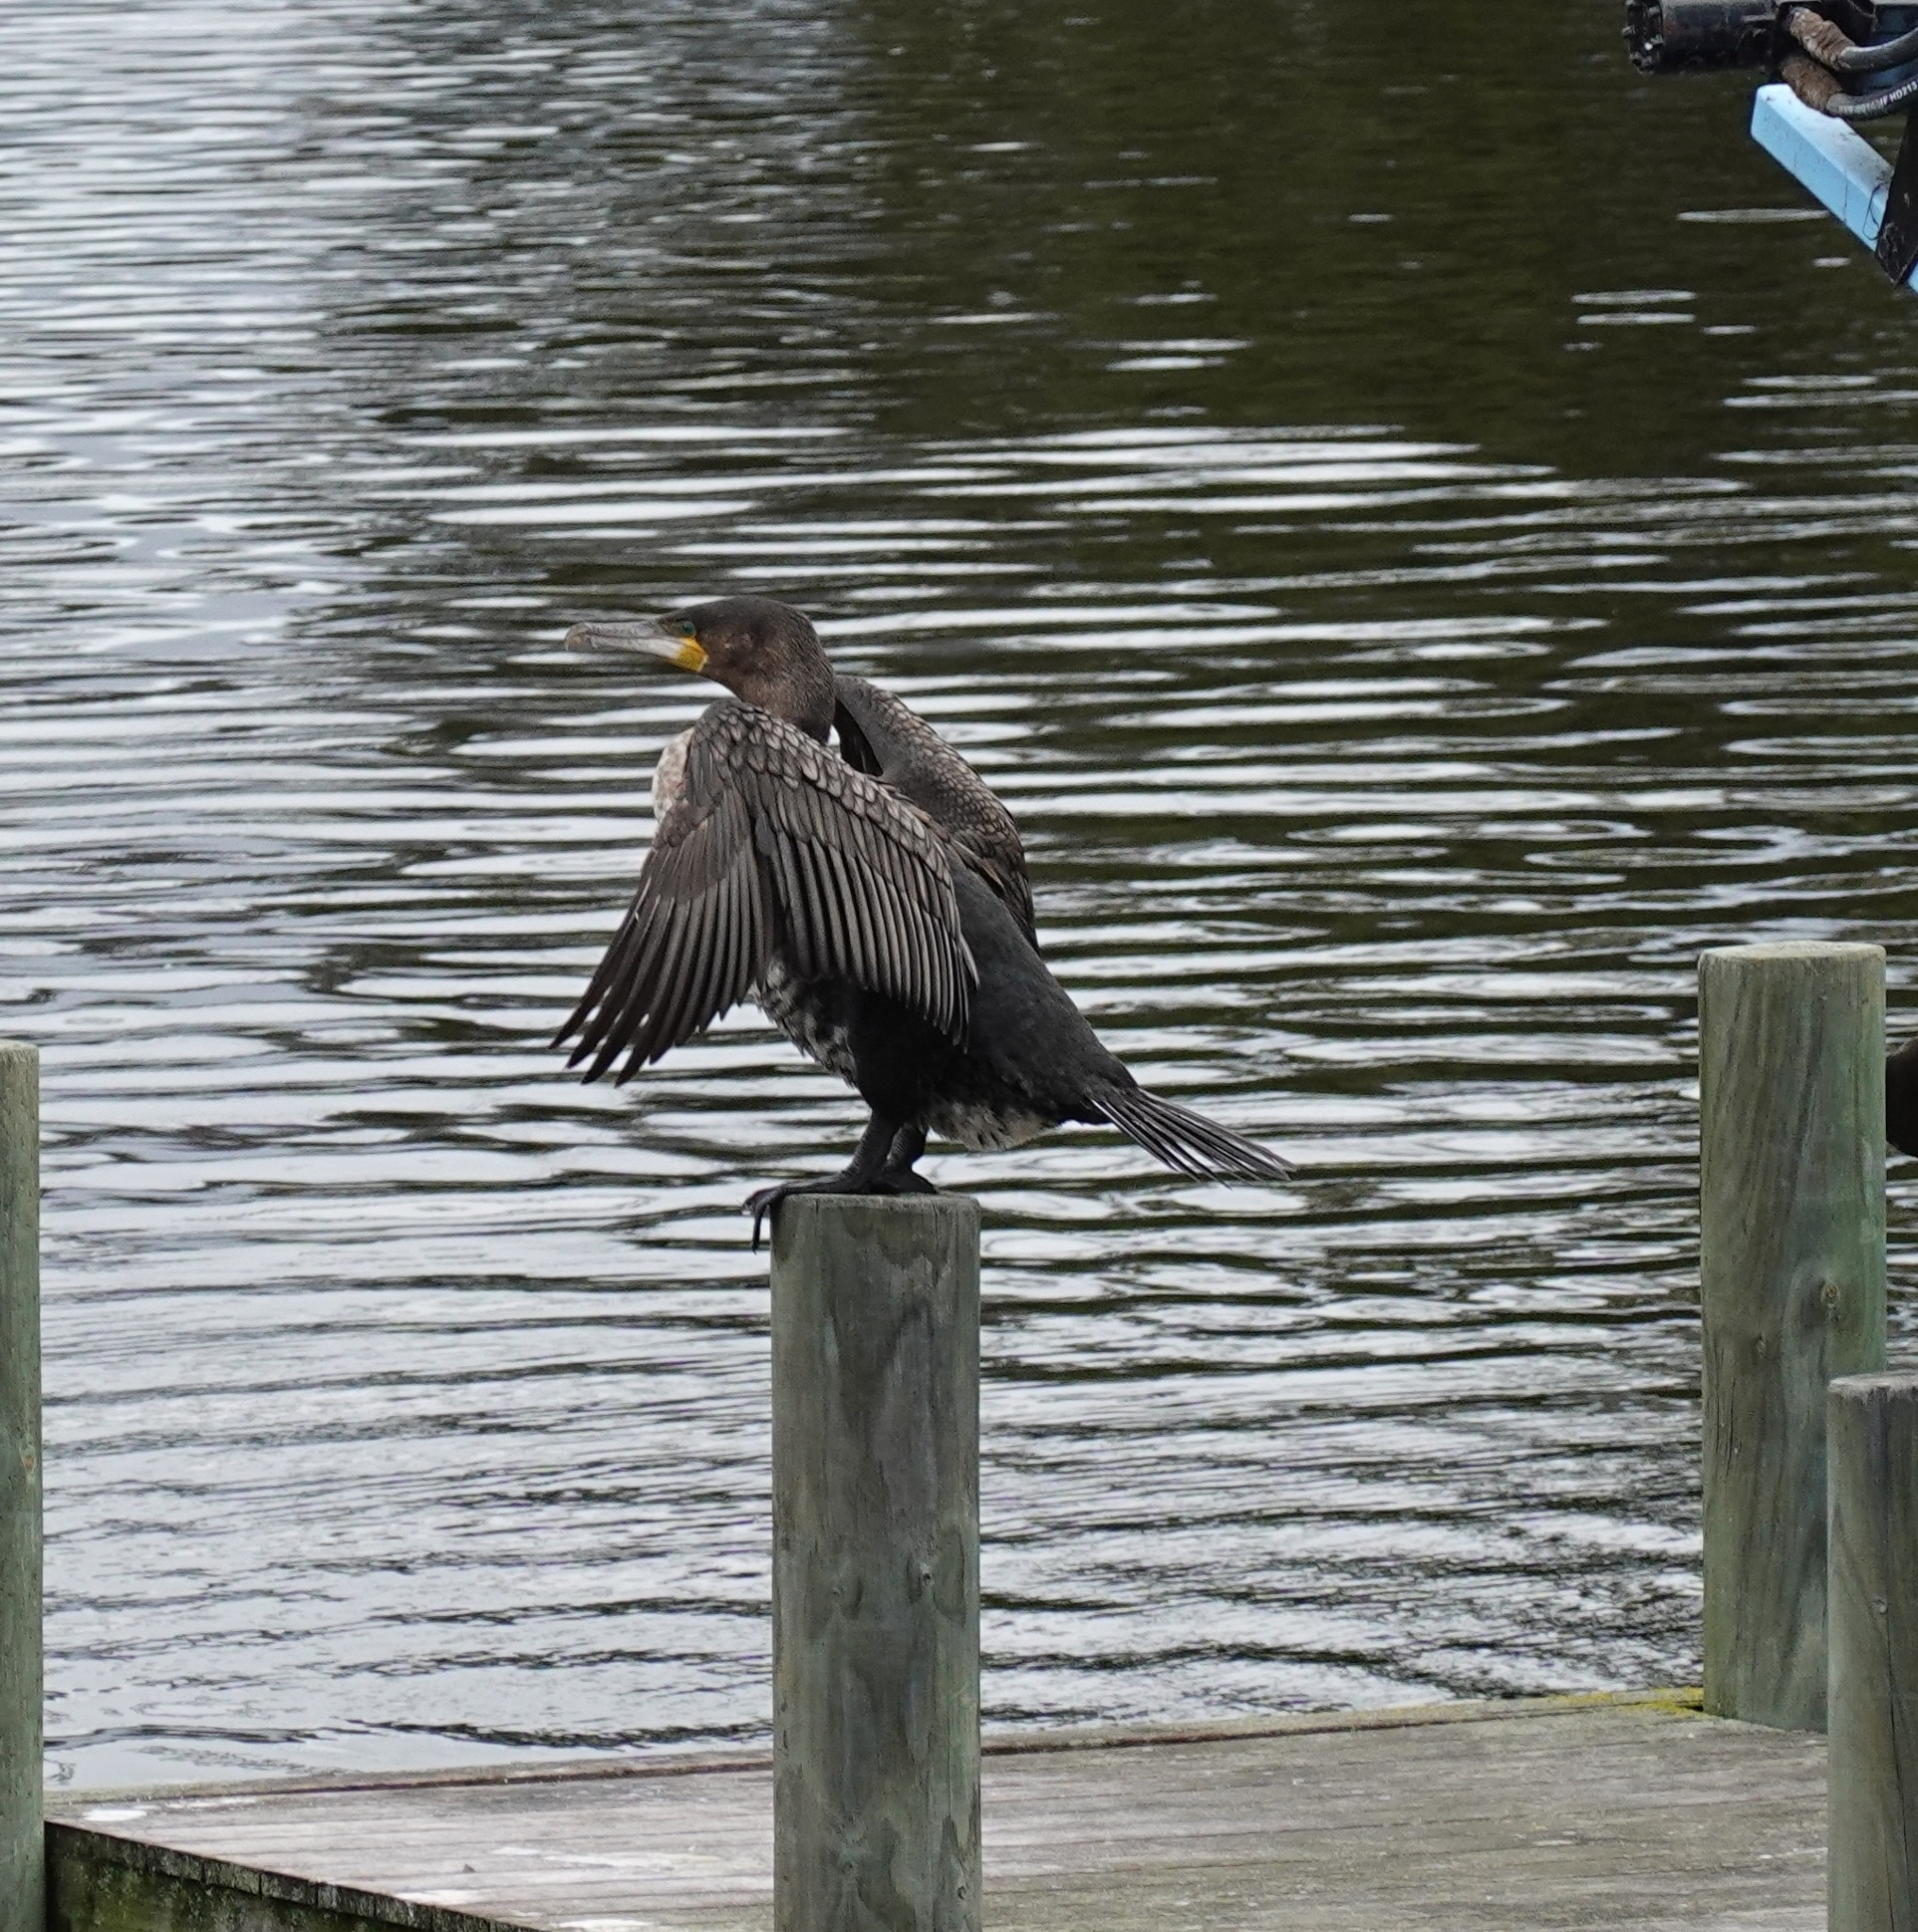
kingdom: Animalia
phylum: Chordata
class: Aves
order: Suliformes
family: Phalacrocoracidae
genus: Phalacrocorax
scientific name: Phalacrocorax carbo
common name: Great cormorant
